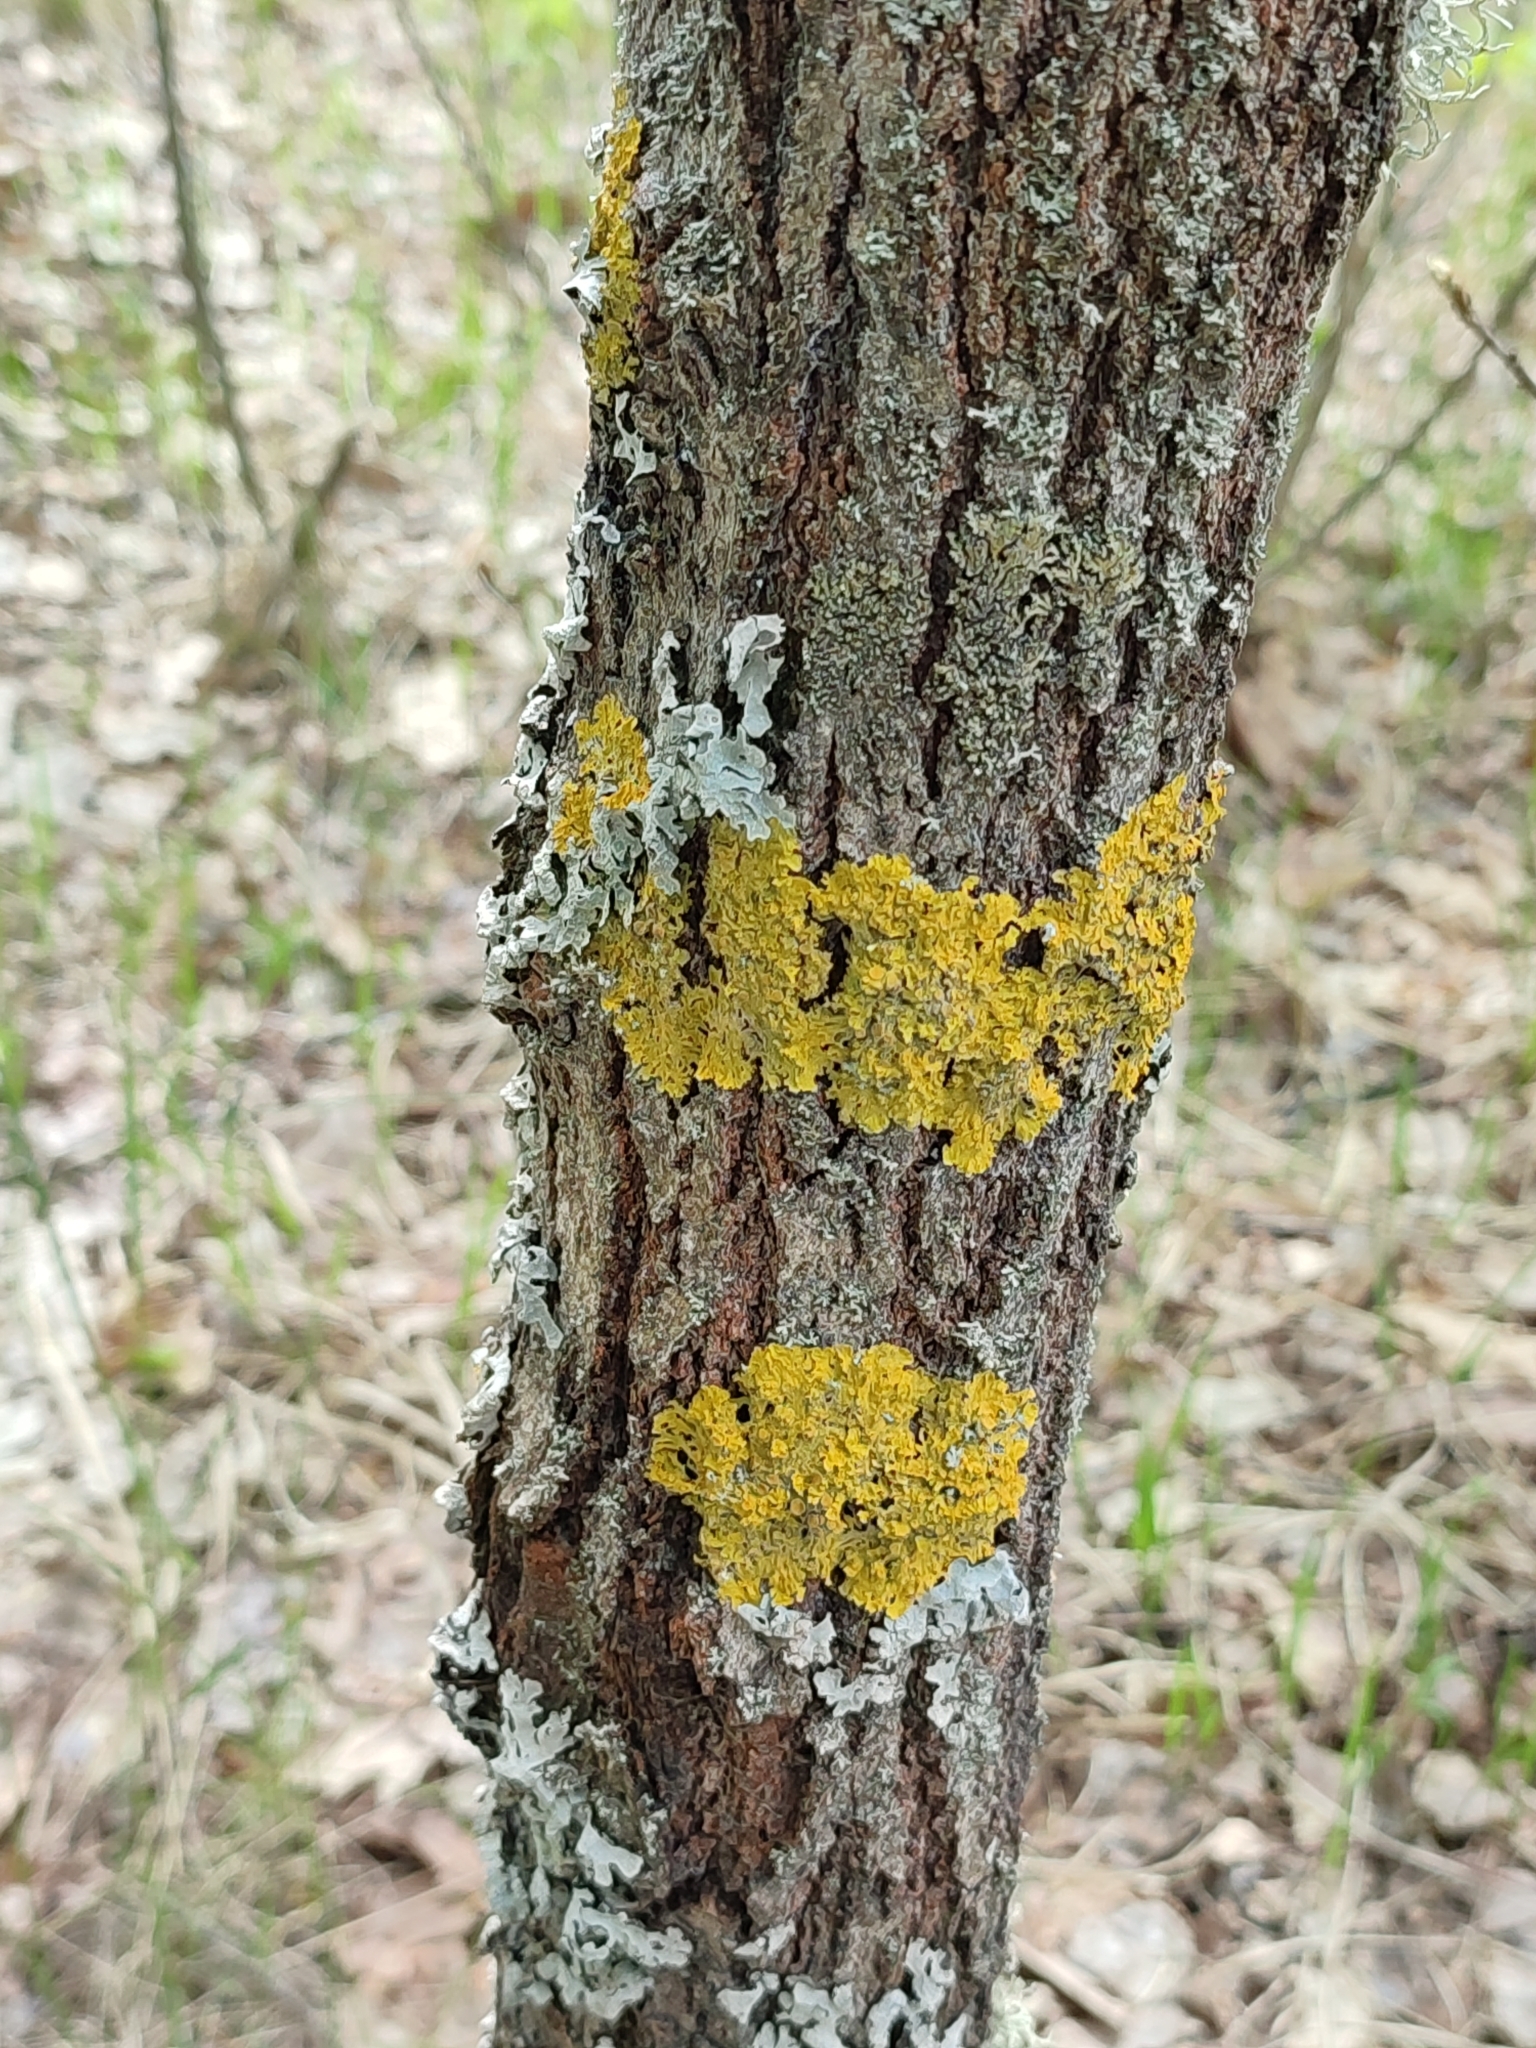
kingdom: Fungi
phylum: Ascomycota
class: Lecanoromycetes
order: Teloschistales
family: Teloschistaceae
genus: Xanthoria
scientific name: Xanthoria parietina
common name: Common orange lichen
